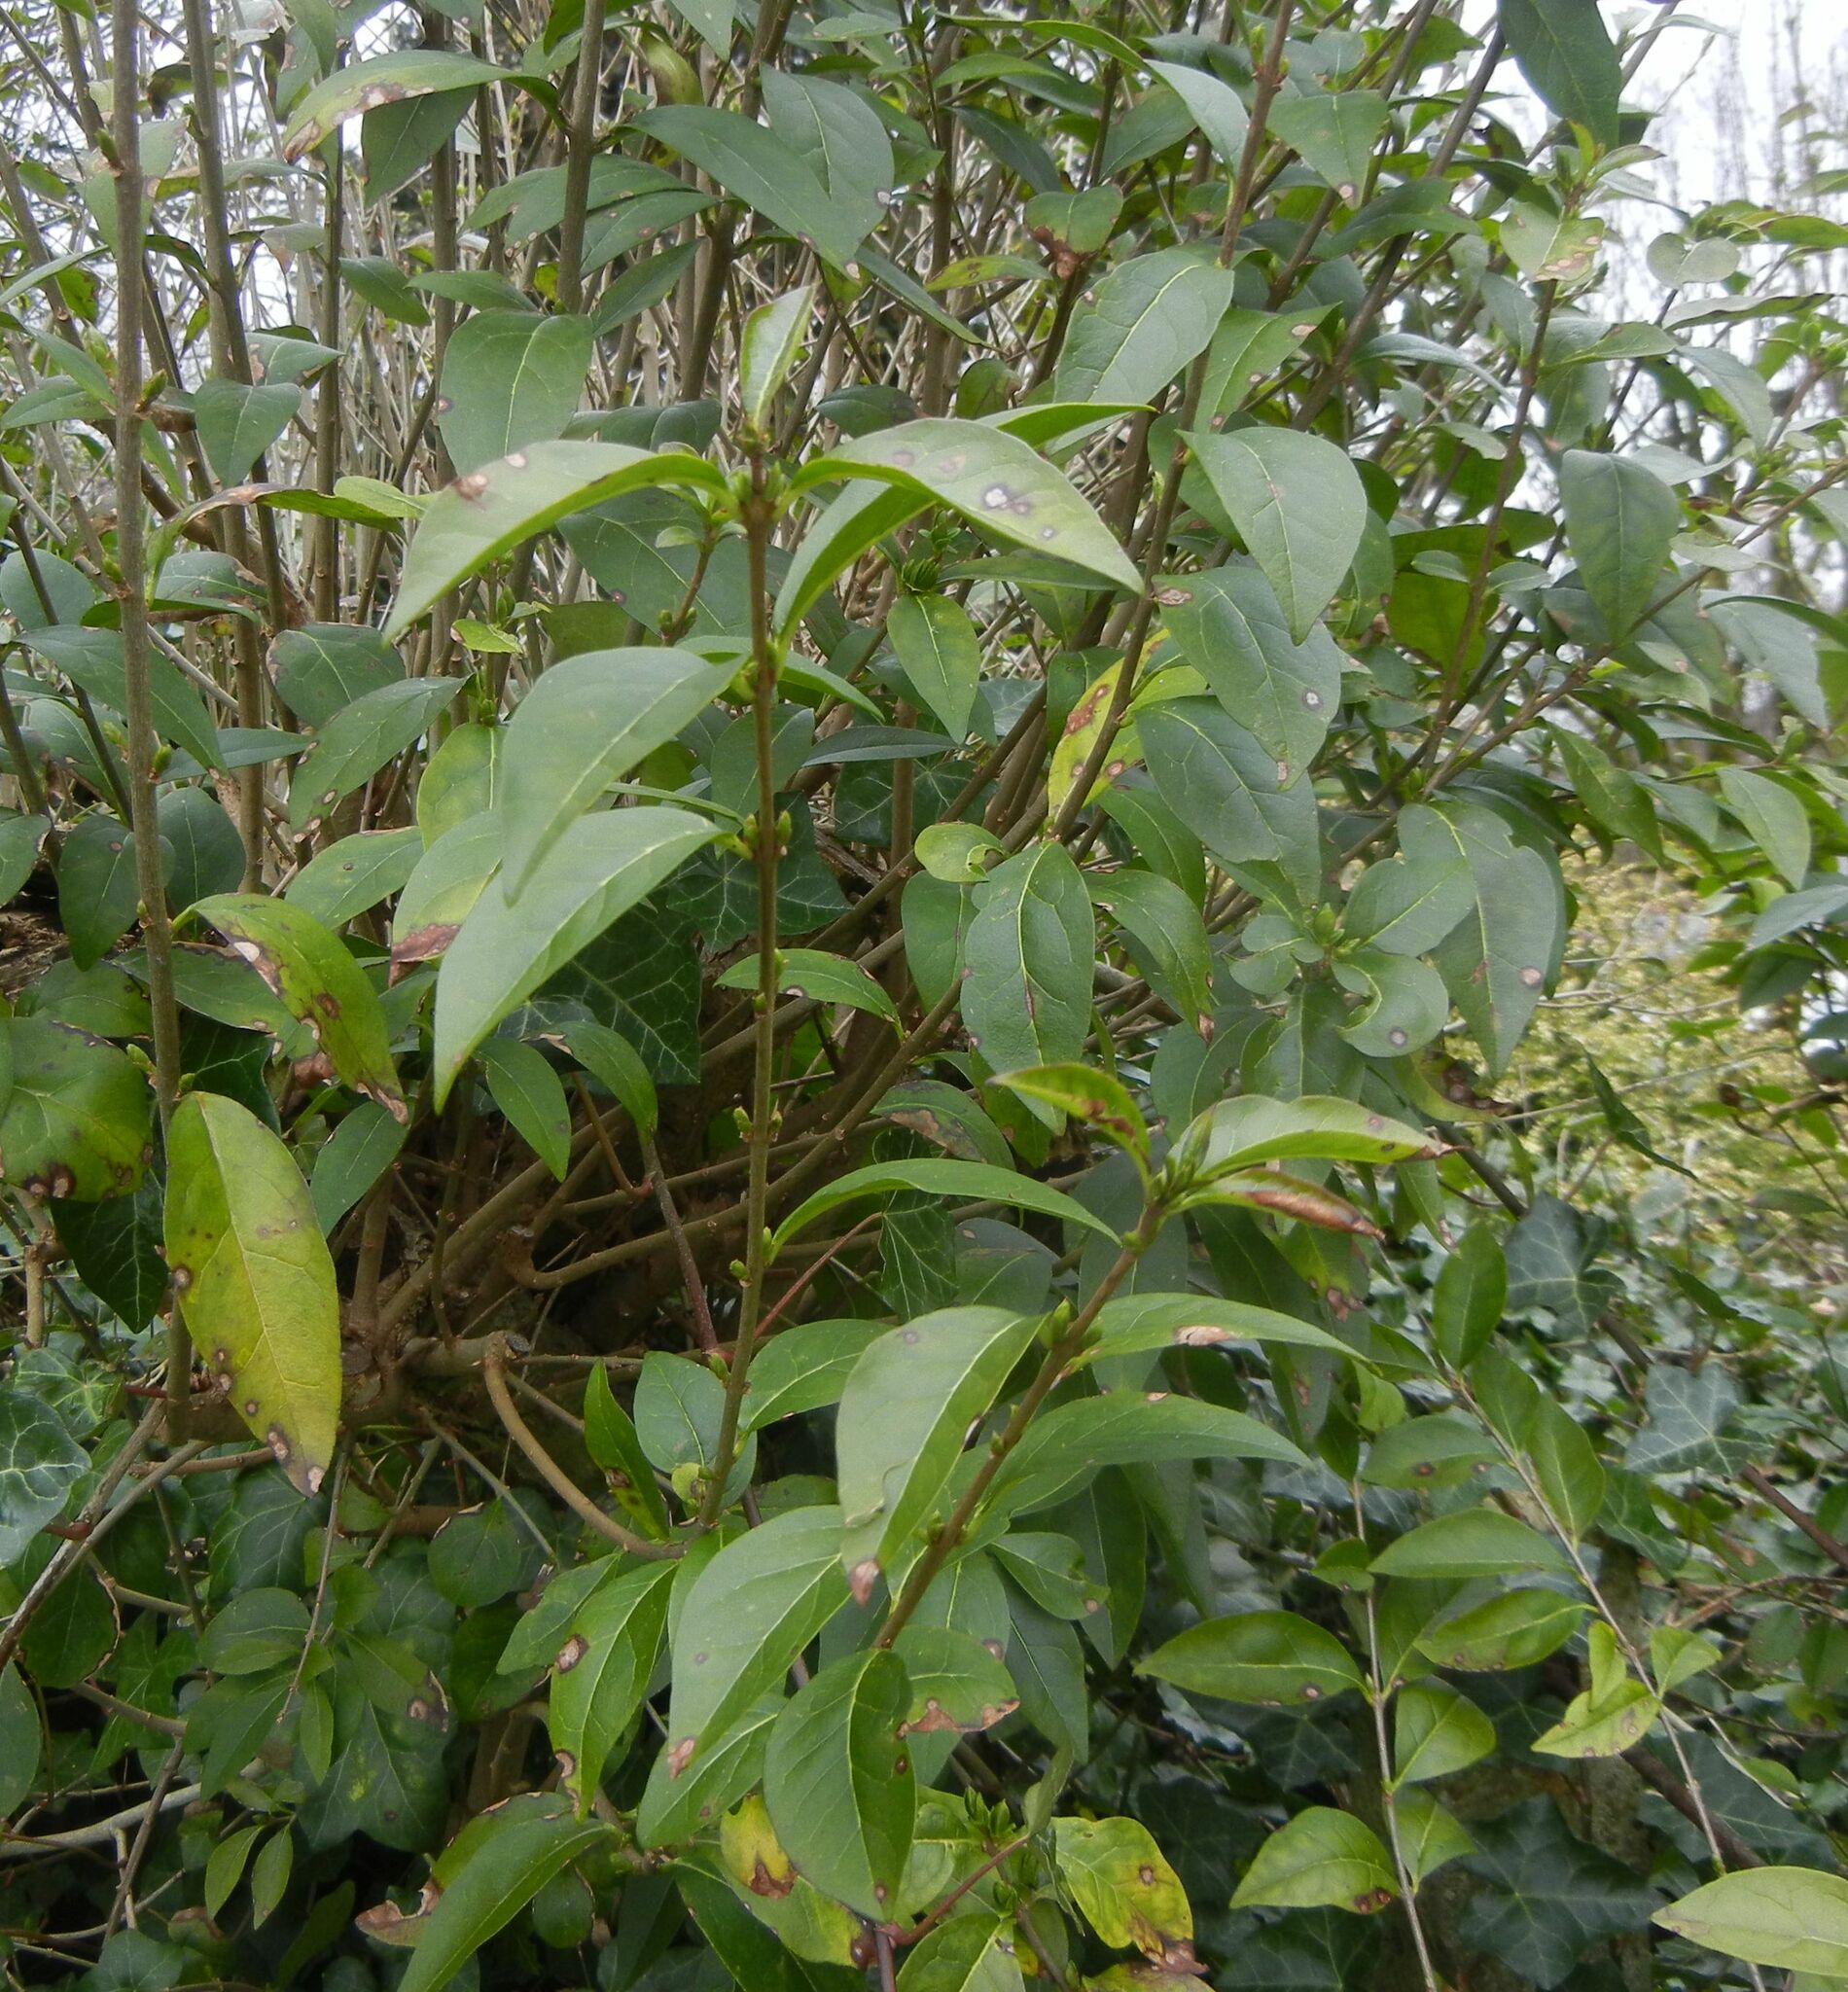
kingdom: Plantae
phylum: Tracheophyta
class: Magnoliopsida
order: Lamiales
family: Oleaceae
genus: Ligustrum
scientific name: Ligustrum ovalifolium
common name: California privet
